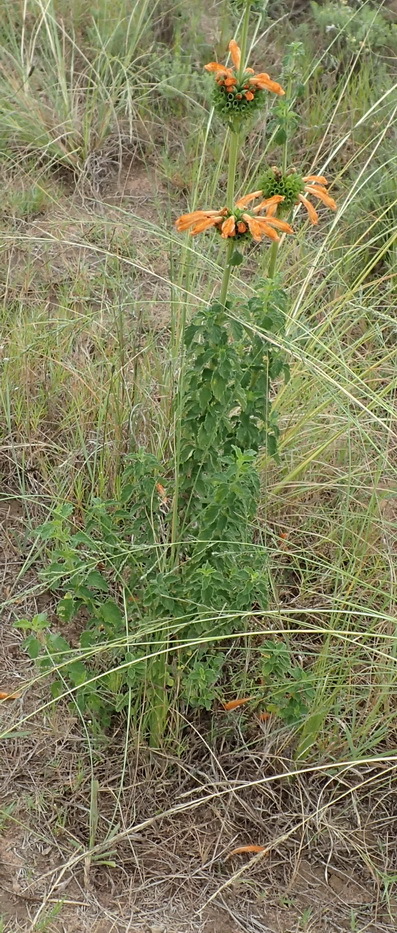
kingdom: Plantae
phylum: Tracheophyta
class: Magnoliopsida
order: Lamiales
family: Lamiaceae
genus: Leonotis
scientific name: Leonotis ocymifolia
